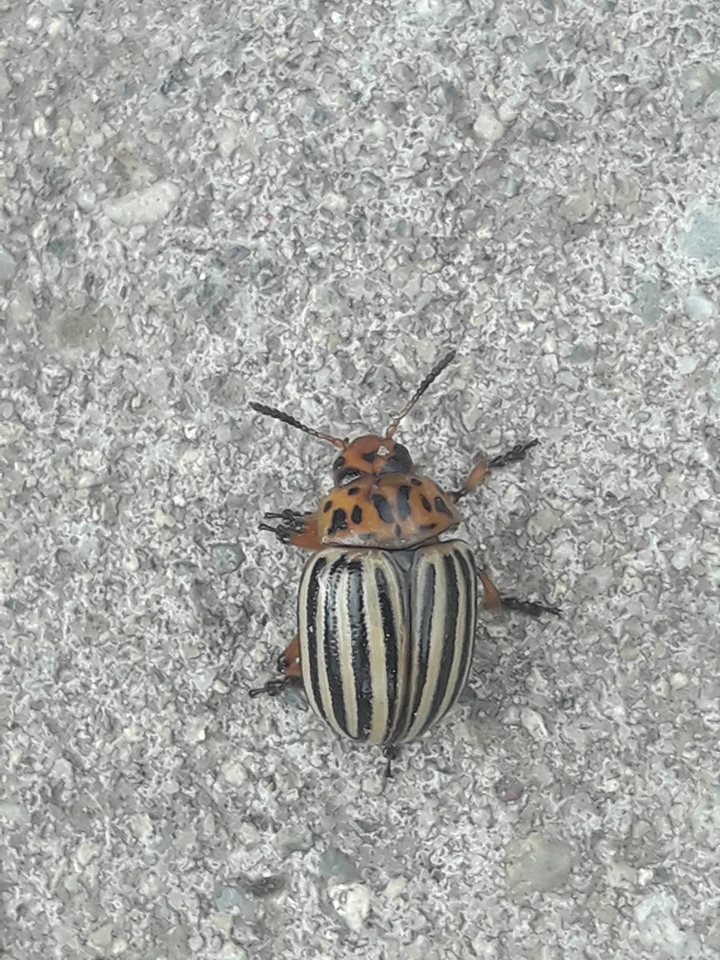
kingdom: Animalia
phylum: Arthropoda
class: Insecta
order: Coleoptera
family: Chrysomelidae
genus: Leptinotarsa
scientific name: Leptinotarsa decemlineata
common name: Colorado potato beetle
